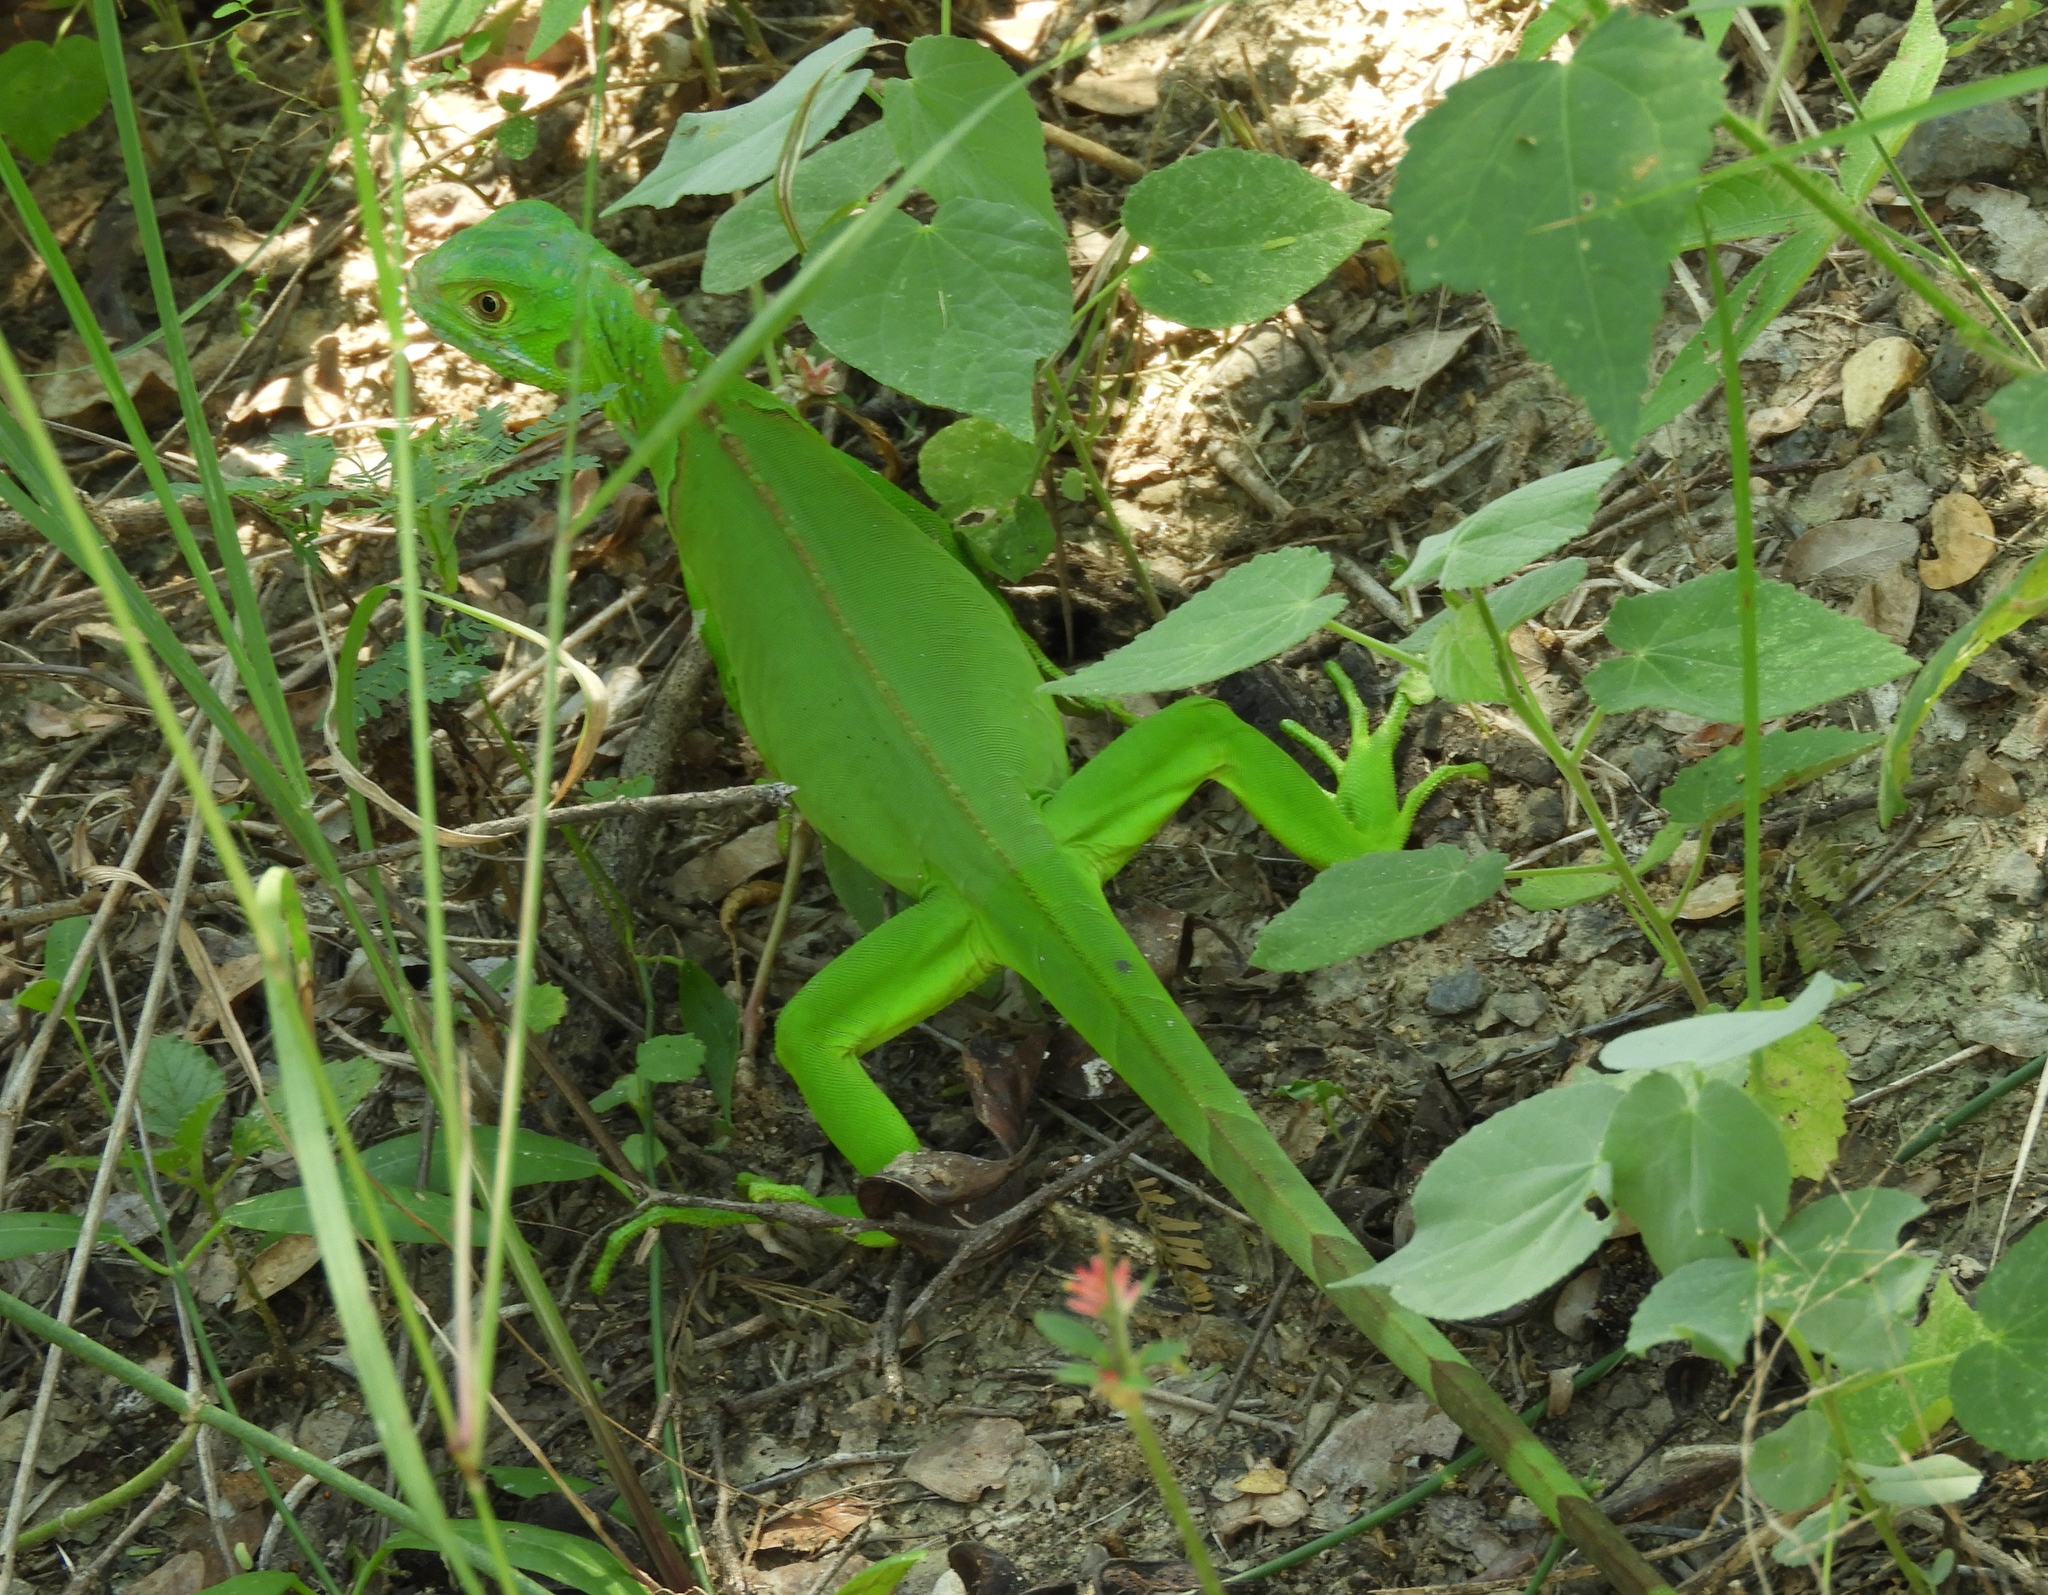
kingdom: Animalia
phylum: Chordata
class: Squamata
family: Iguanidae
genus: Iguana
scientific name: Iguana iguana
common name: Green iguana
